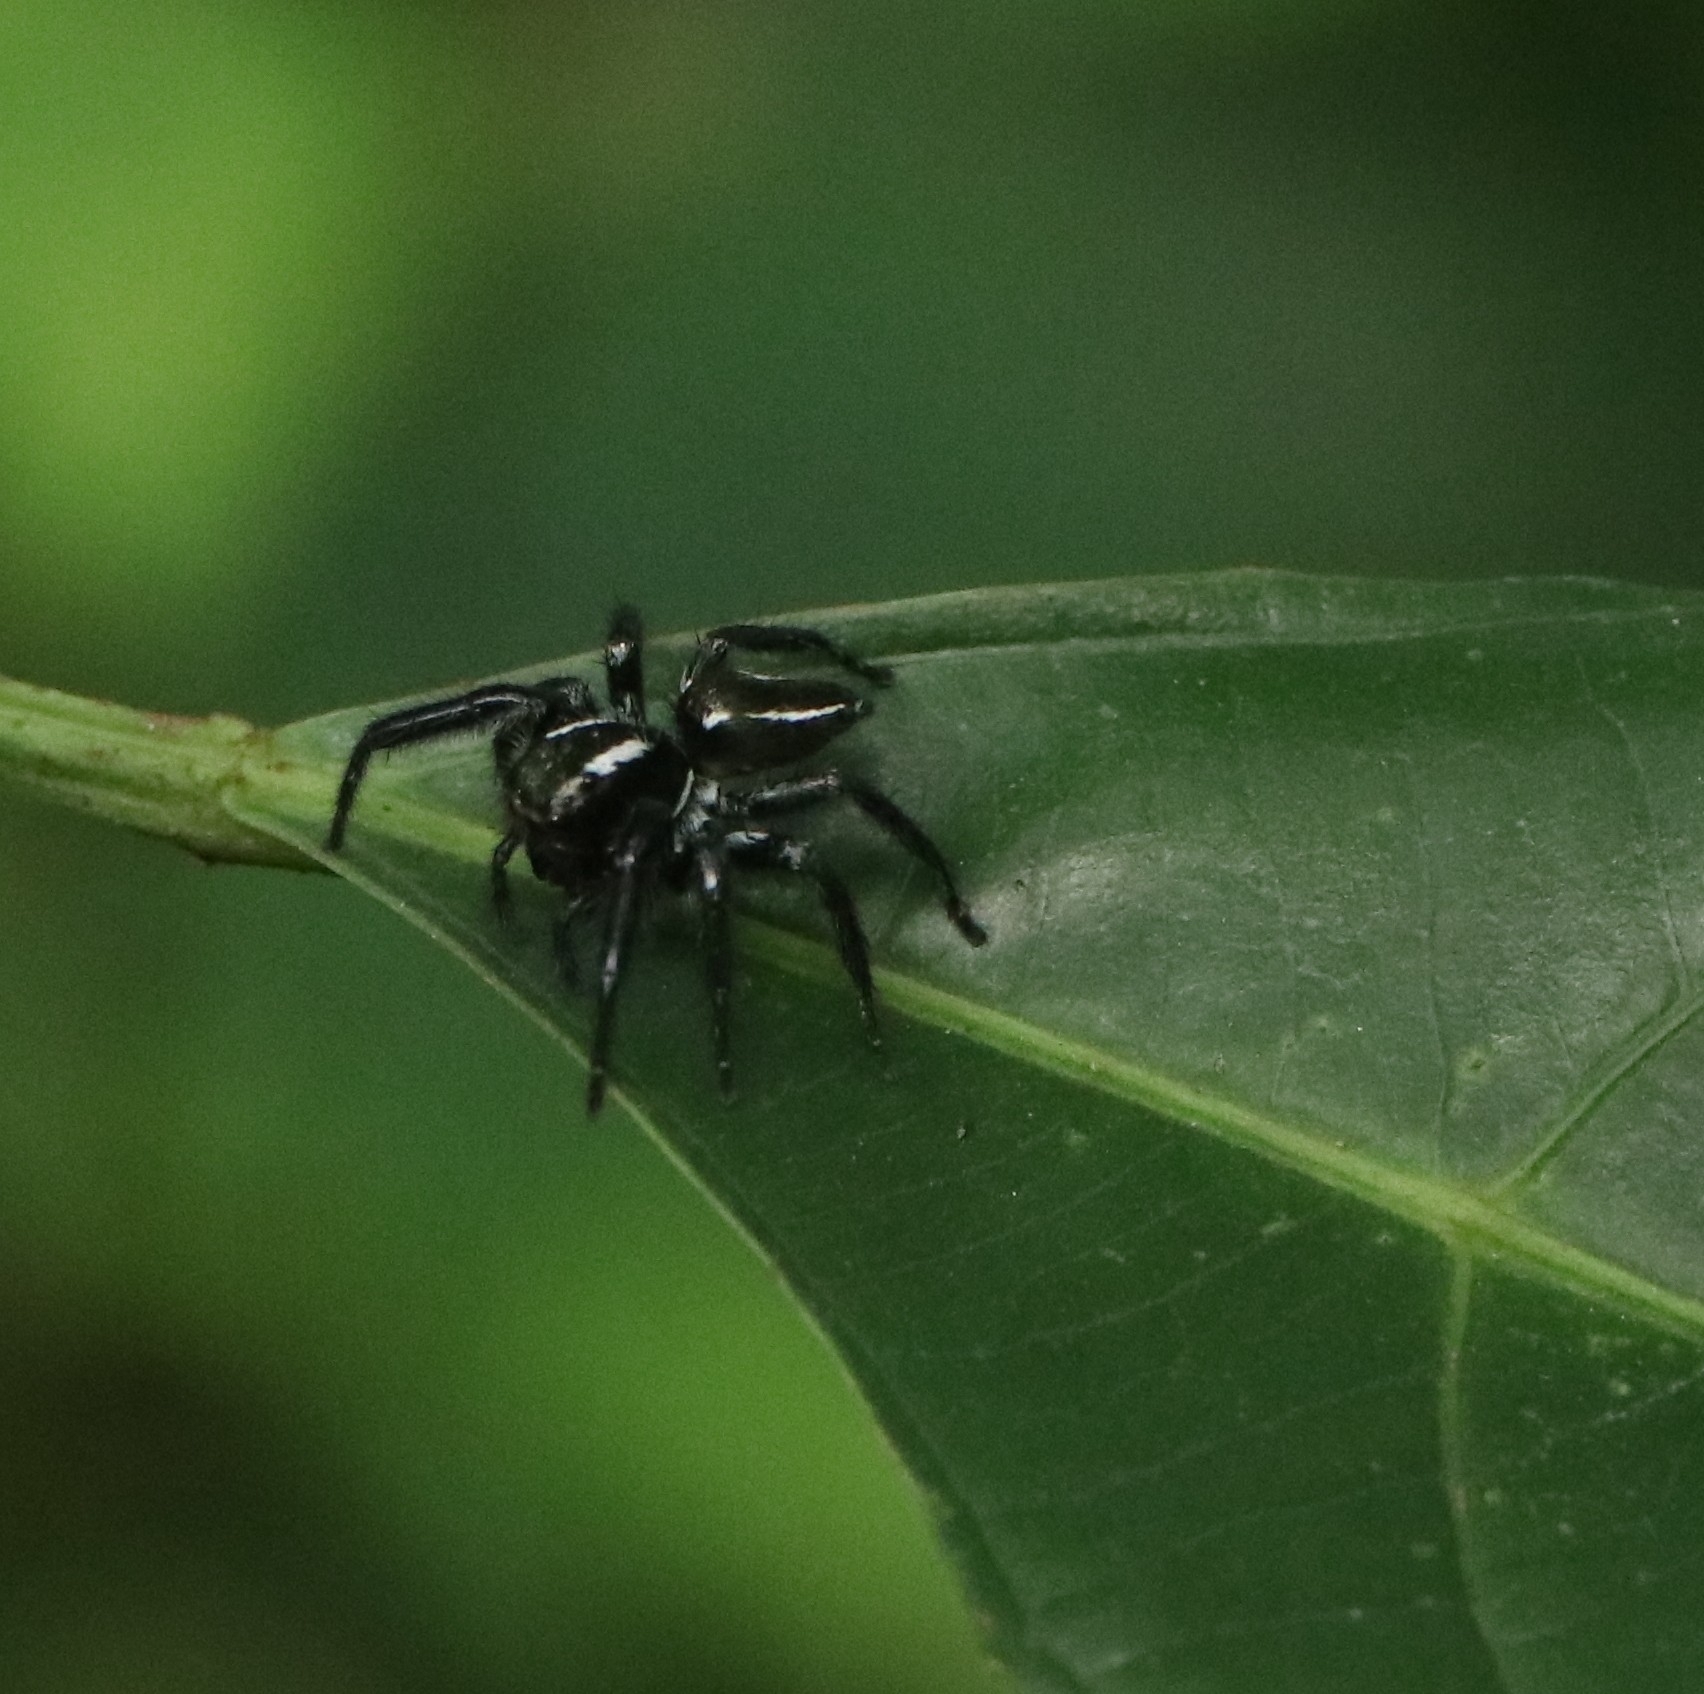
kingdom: Animalia
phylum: Arthropoda
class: Arachnida
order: Araneae
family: Salticidae
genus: Carrhotus
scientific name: Carrhotus viduus
